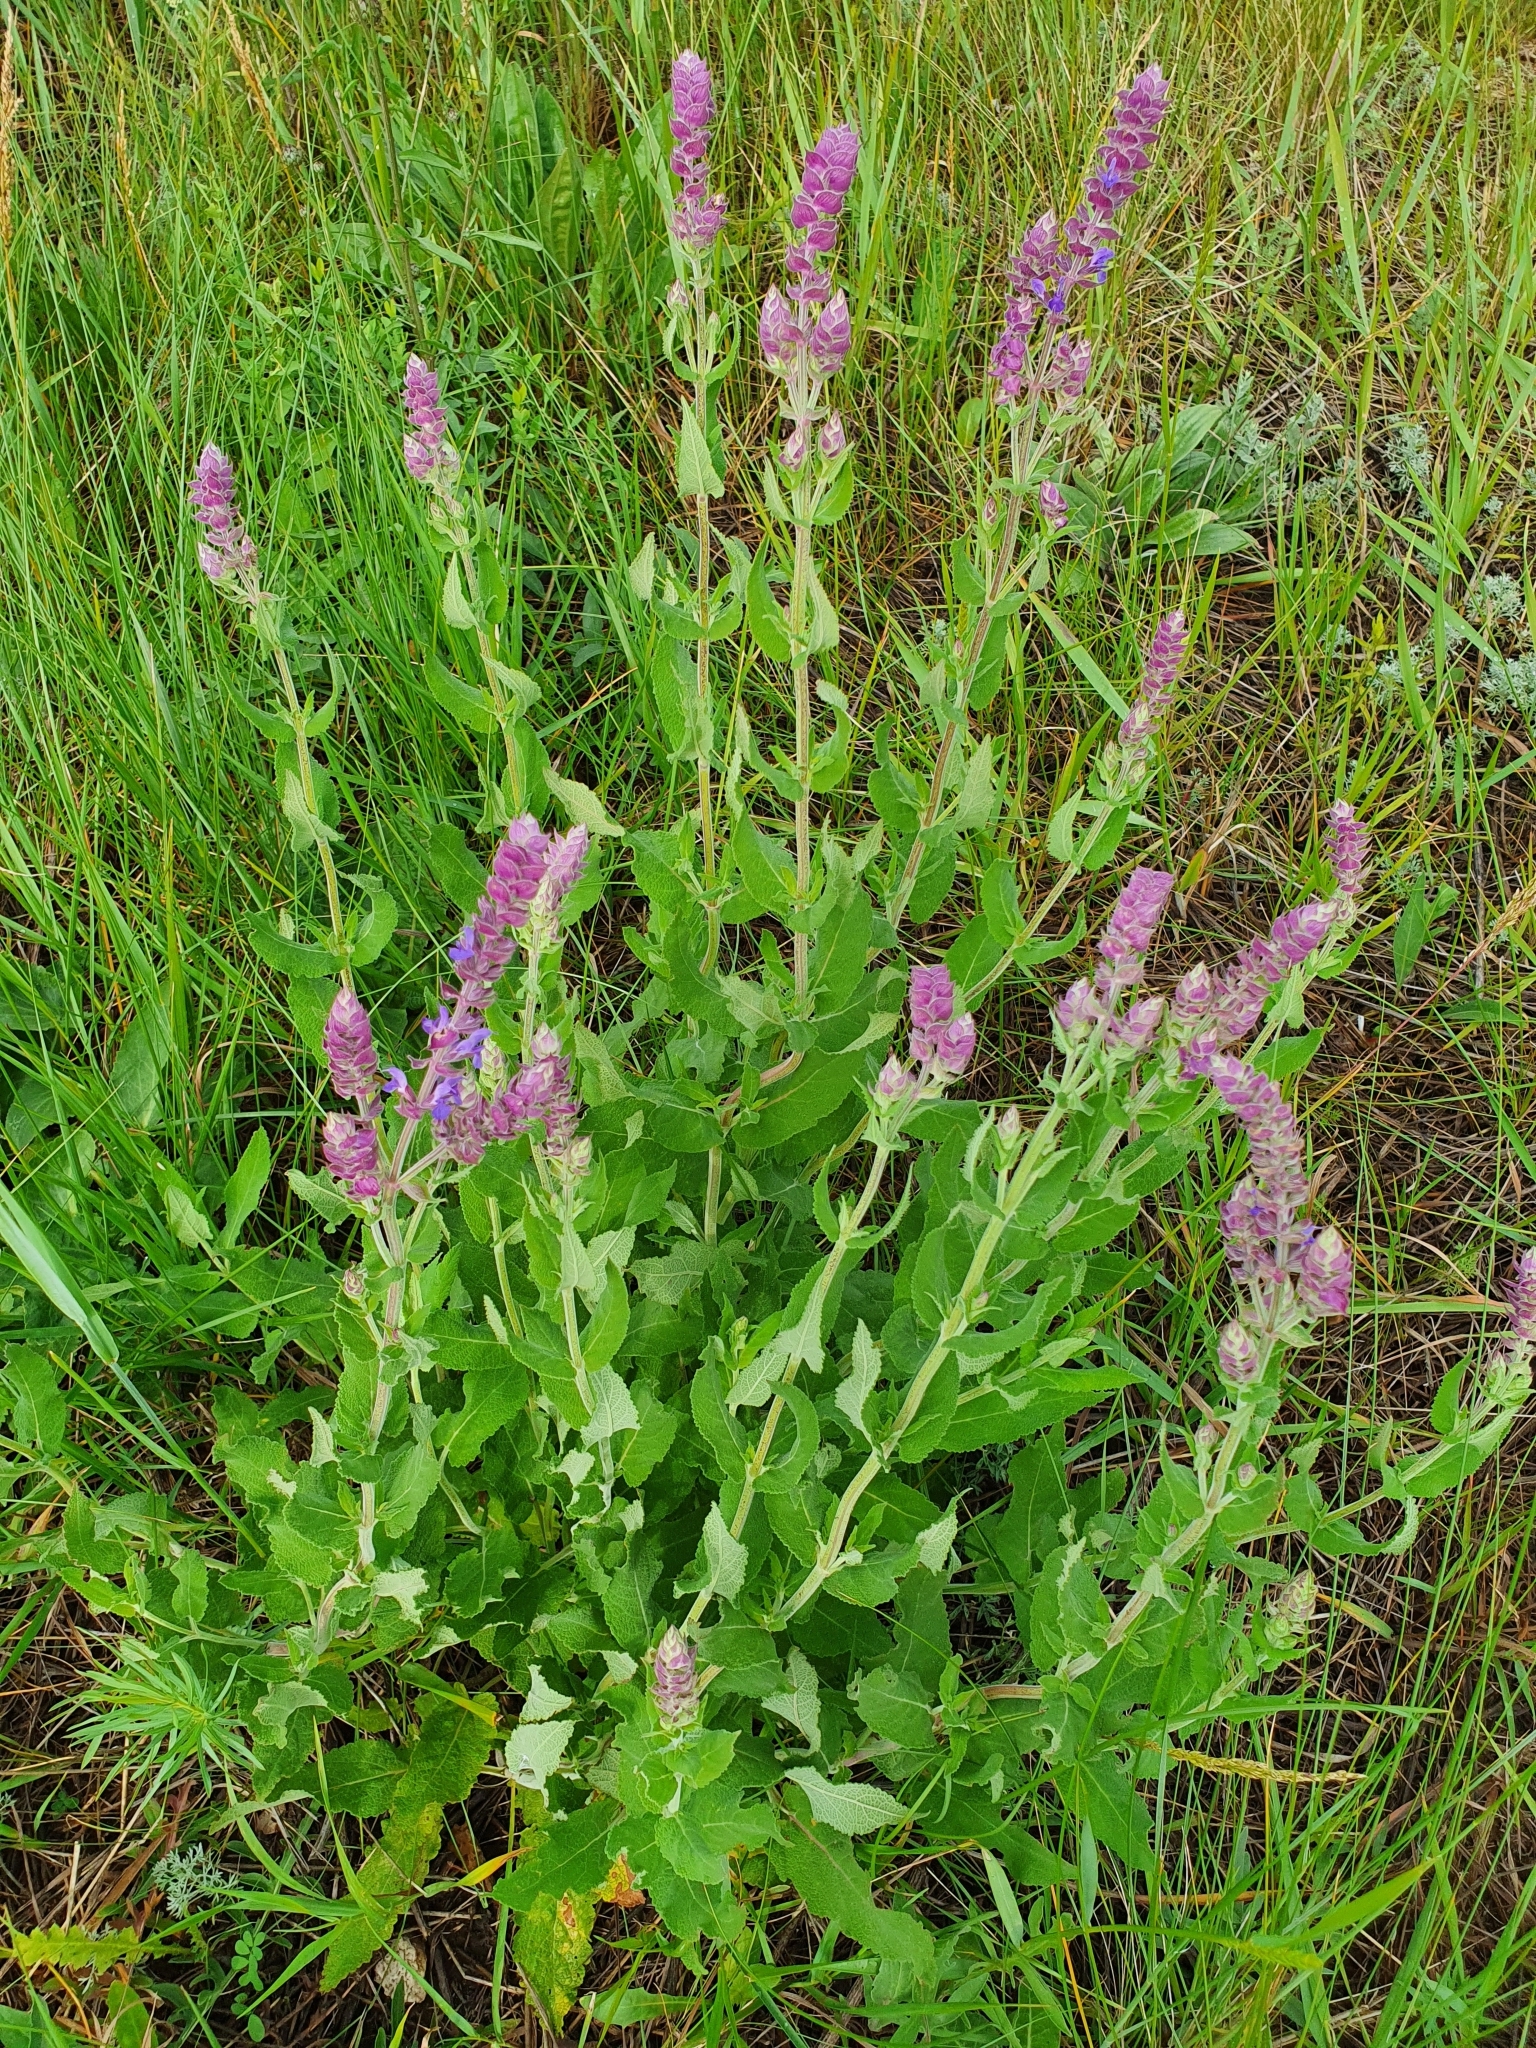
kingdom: Plantae
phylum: Tracheophyta
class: Magnoliopsida
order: Lamiales
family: Lamiaceae
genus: Salvia
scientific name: Salvia nemorosa
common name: Balkan clary
